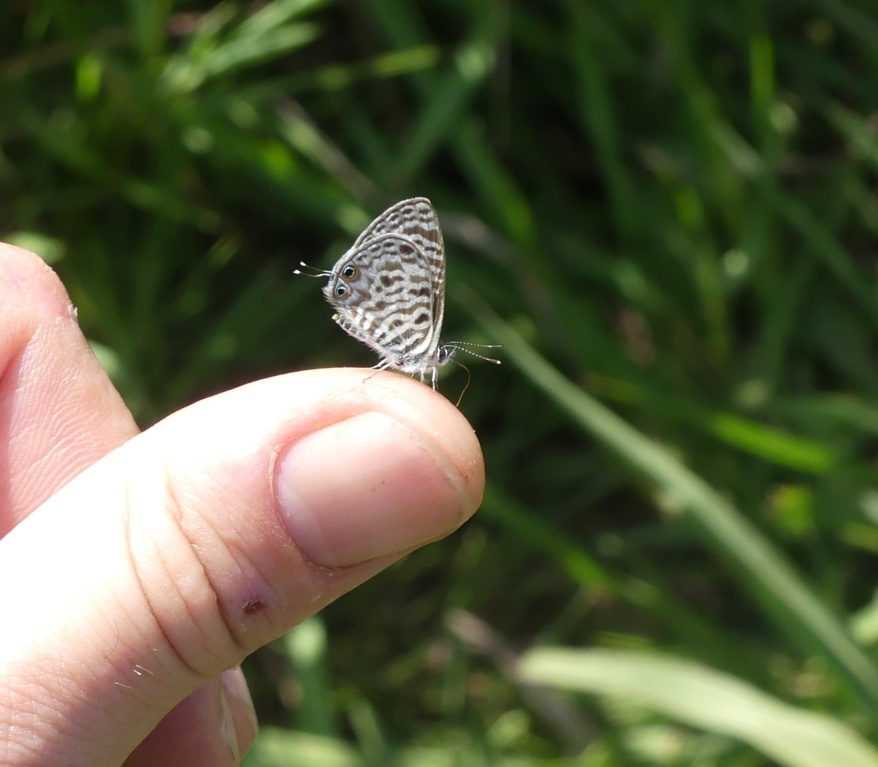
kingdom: Animalia
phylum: Arthropoda
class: Insecta
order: Lepidoptera
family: Lycaenidae
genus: Leptotes
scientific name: Leptotes
